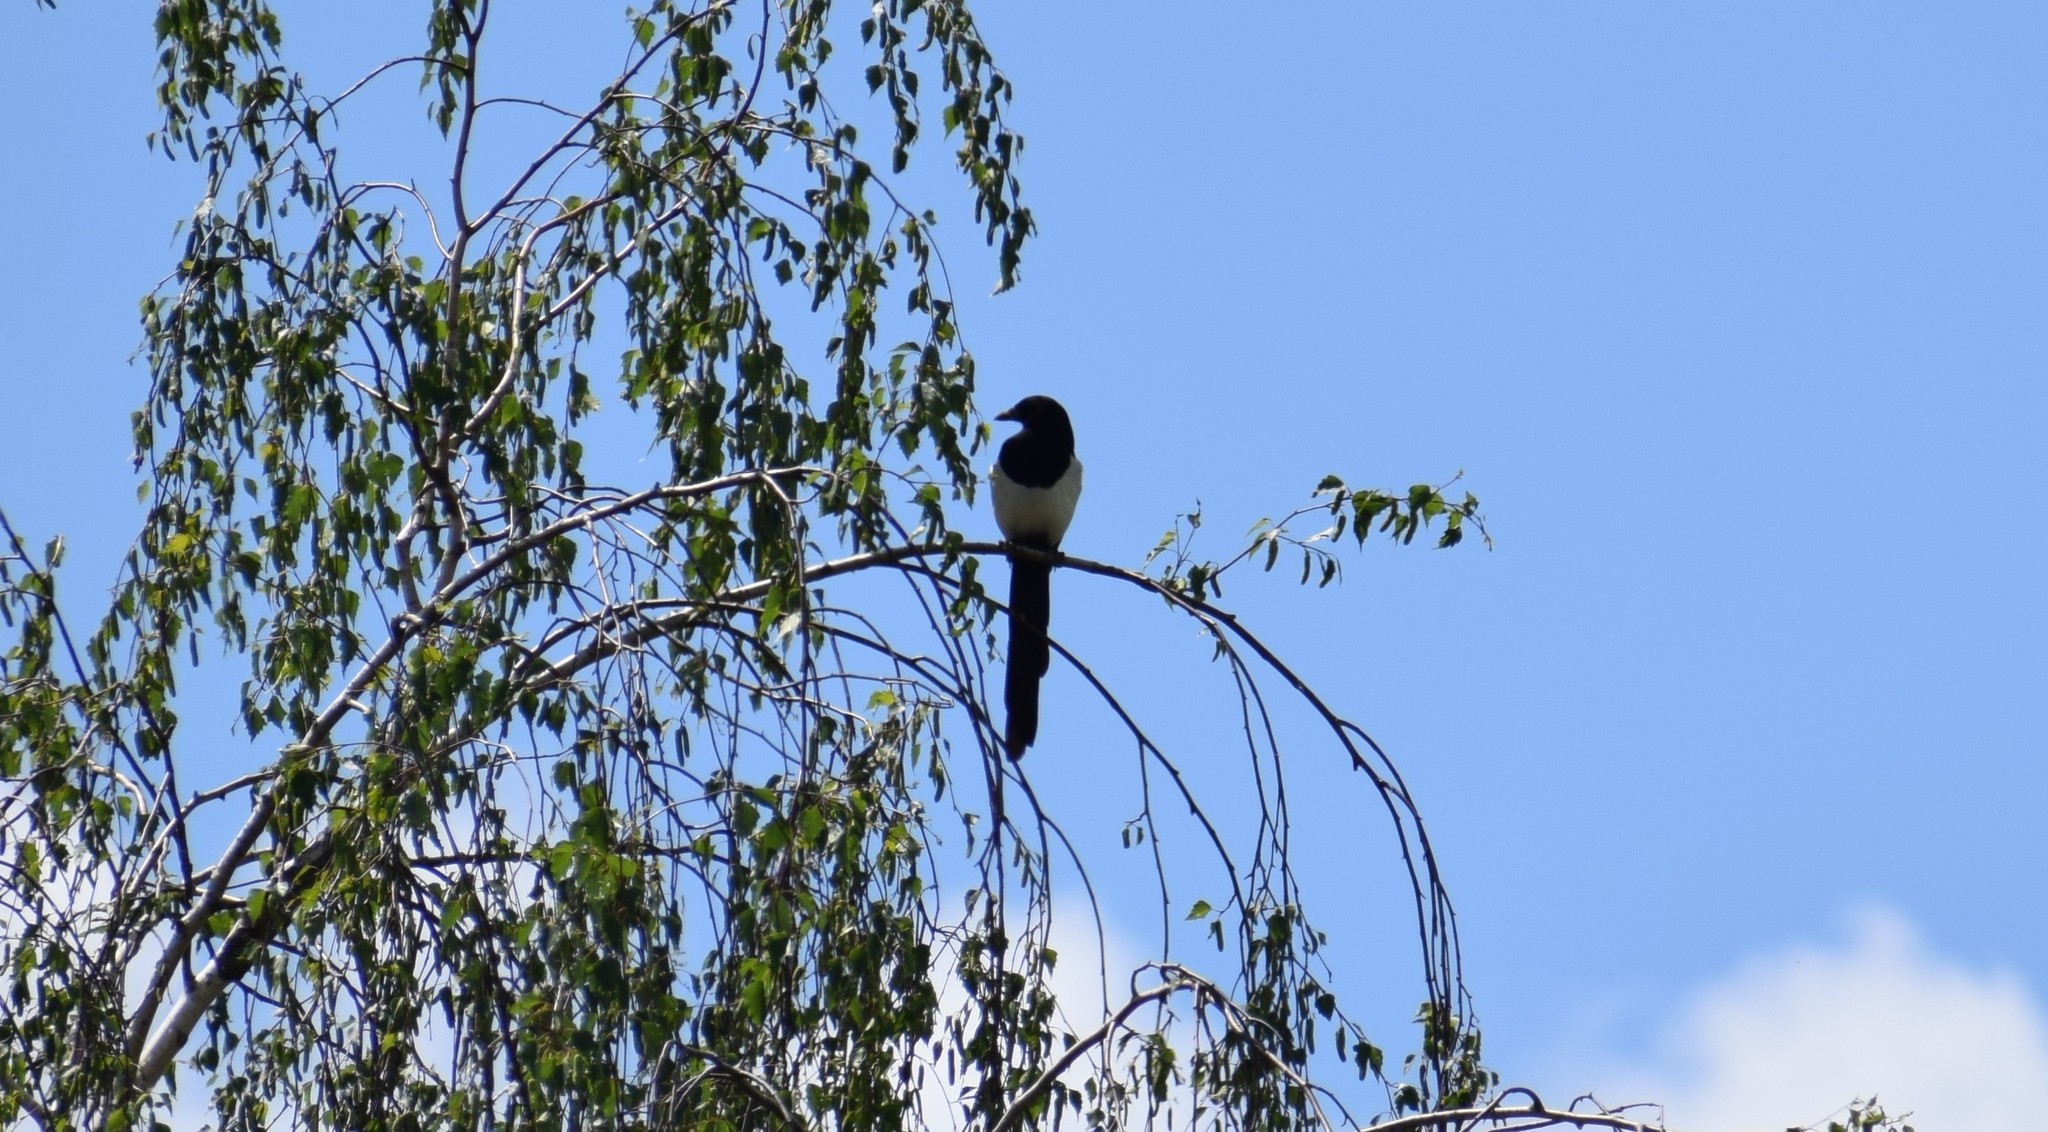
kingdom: Animalia
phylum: Chordata
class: Aves
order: Passeriformes
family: Corvidae
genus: Pica
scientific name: Pica pica
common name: Eurasian magpie
